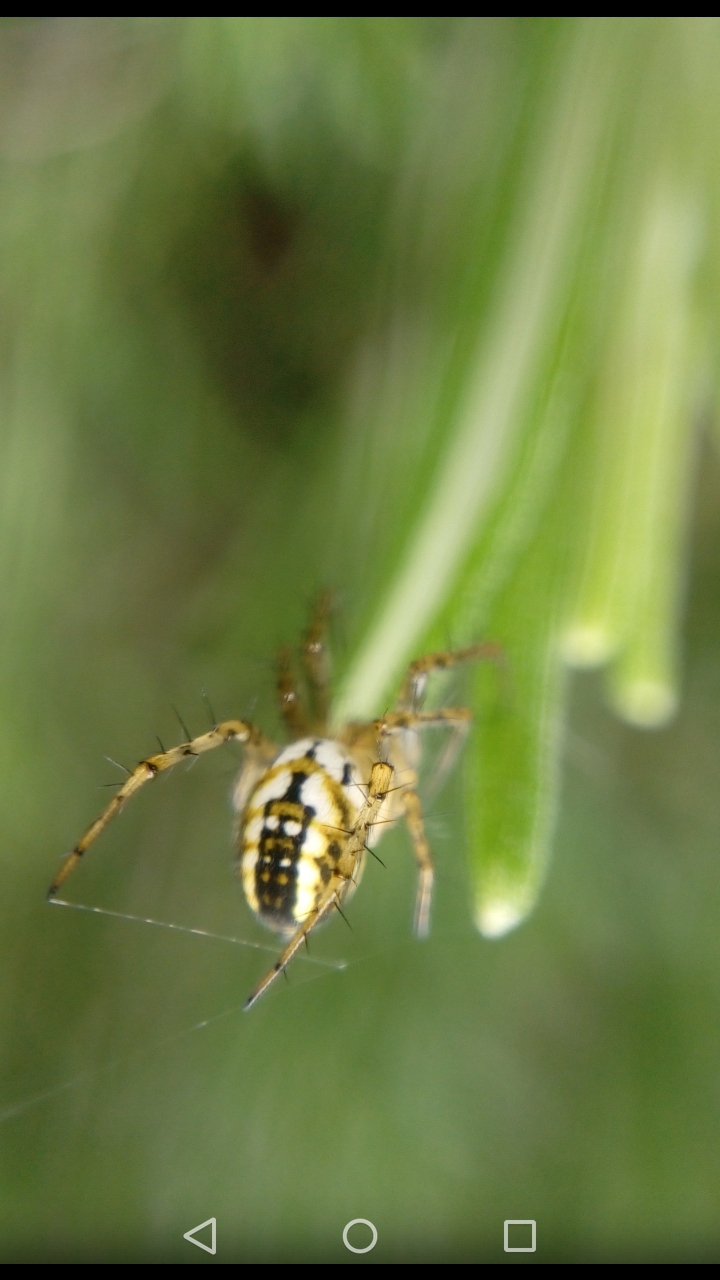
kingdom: Animalia
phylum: Arthropoda
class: Arachnida
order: Araneae
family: Araneidae
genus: Mangora
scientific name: Mangora acalypha
